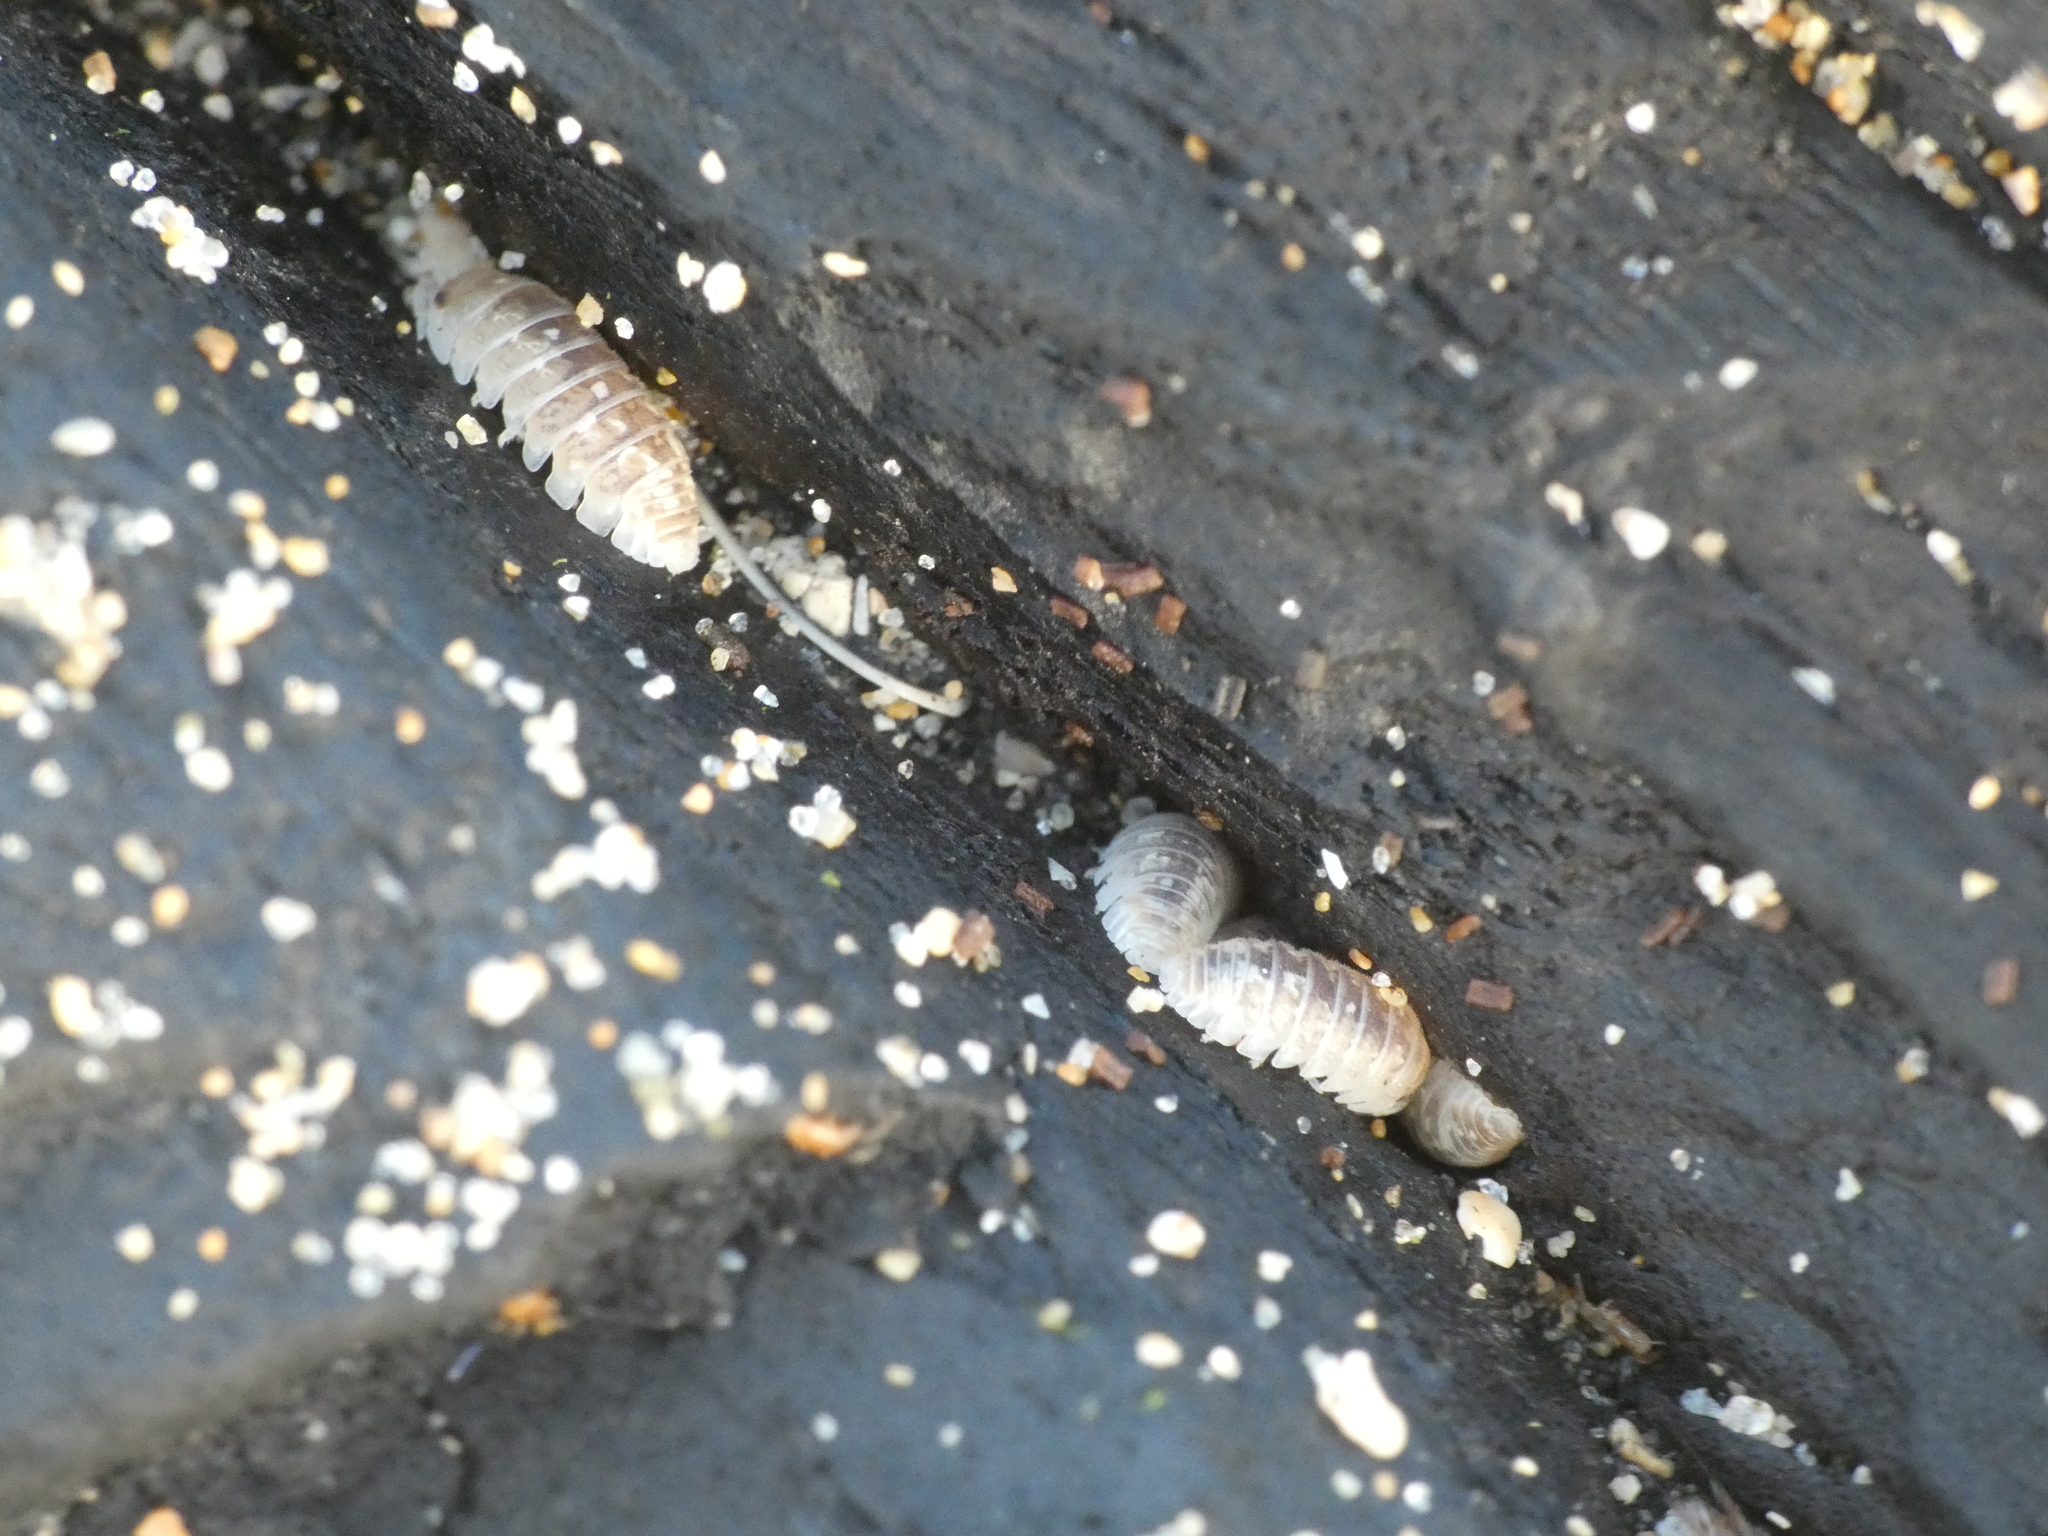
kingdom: Animalia
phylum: Arthropoda
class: Malacostraca
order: Isopoda
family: Armadillidiidae
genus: Armadillidium
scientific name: Armadillidium album
